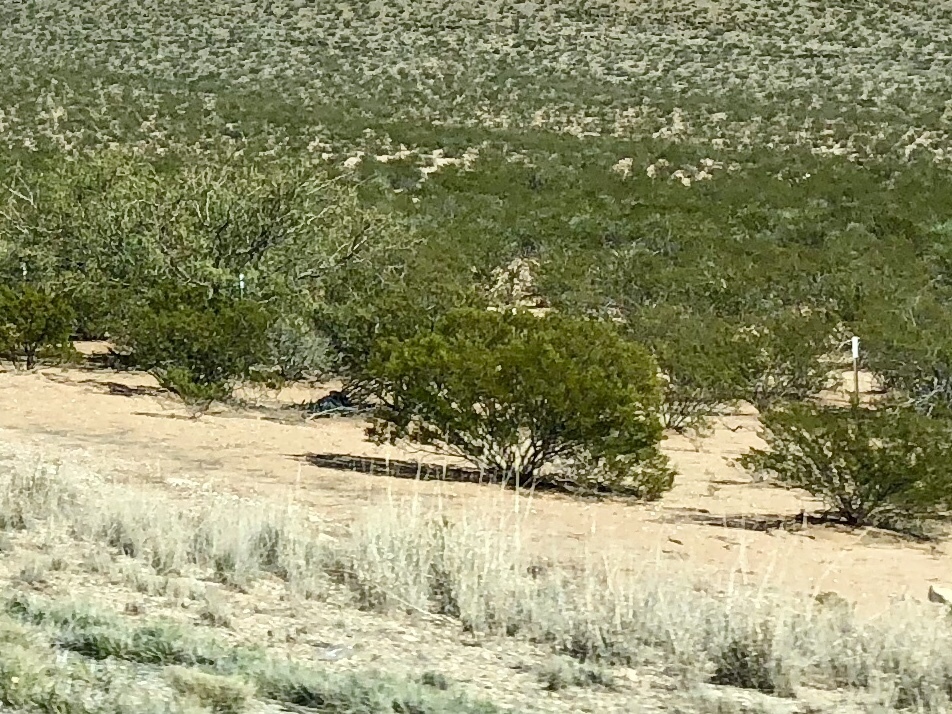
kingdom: Plantae
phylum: Tracheophyta
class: Magnoliopsida
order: Zygophyllales
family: Zygophyllaceae
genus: Larrea
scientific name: Larrea tridentata
